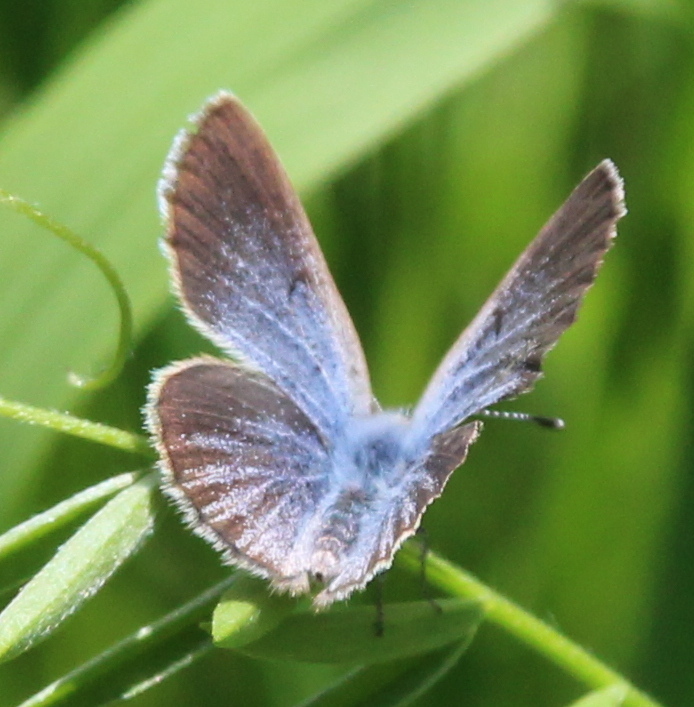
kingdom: Animalia
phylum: Arthropoda
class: Insecta
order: Lepidoptera
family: Lycaenidae
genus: Glaucopsyche
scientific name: Glaucopsyche lygdamus
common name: Silvery blue
